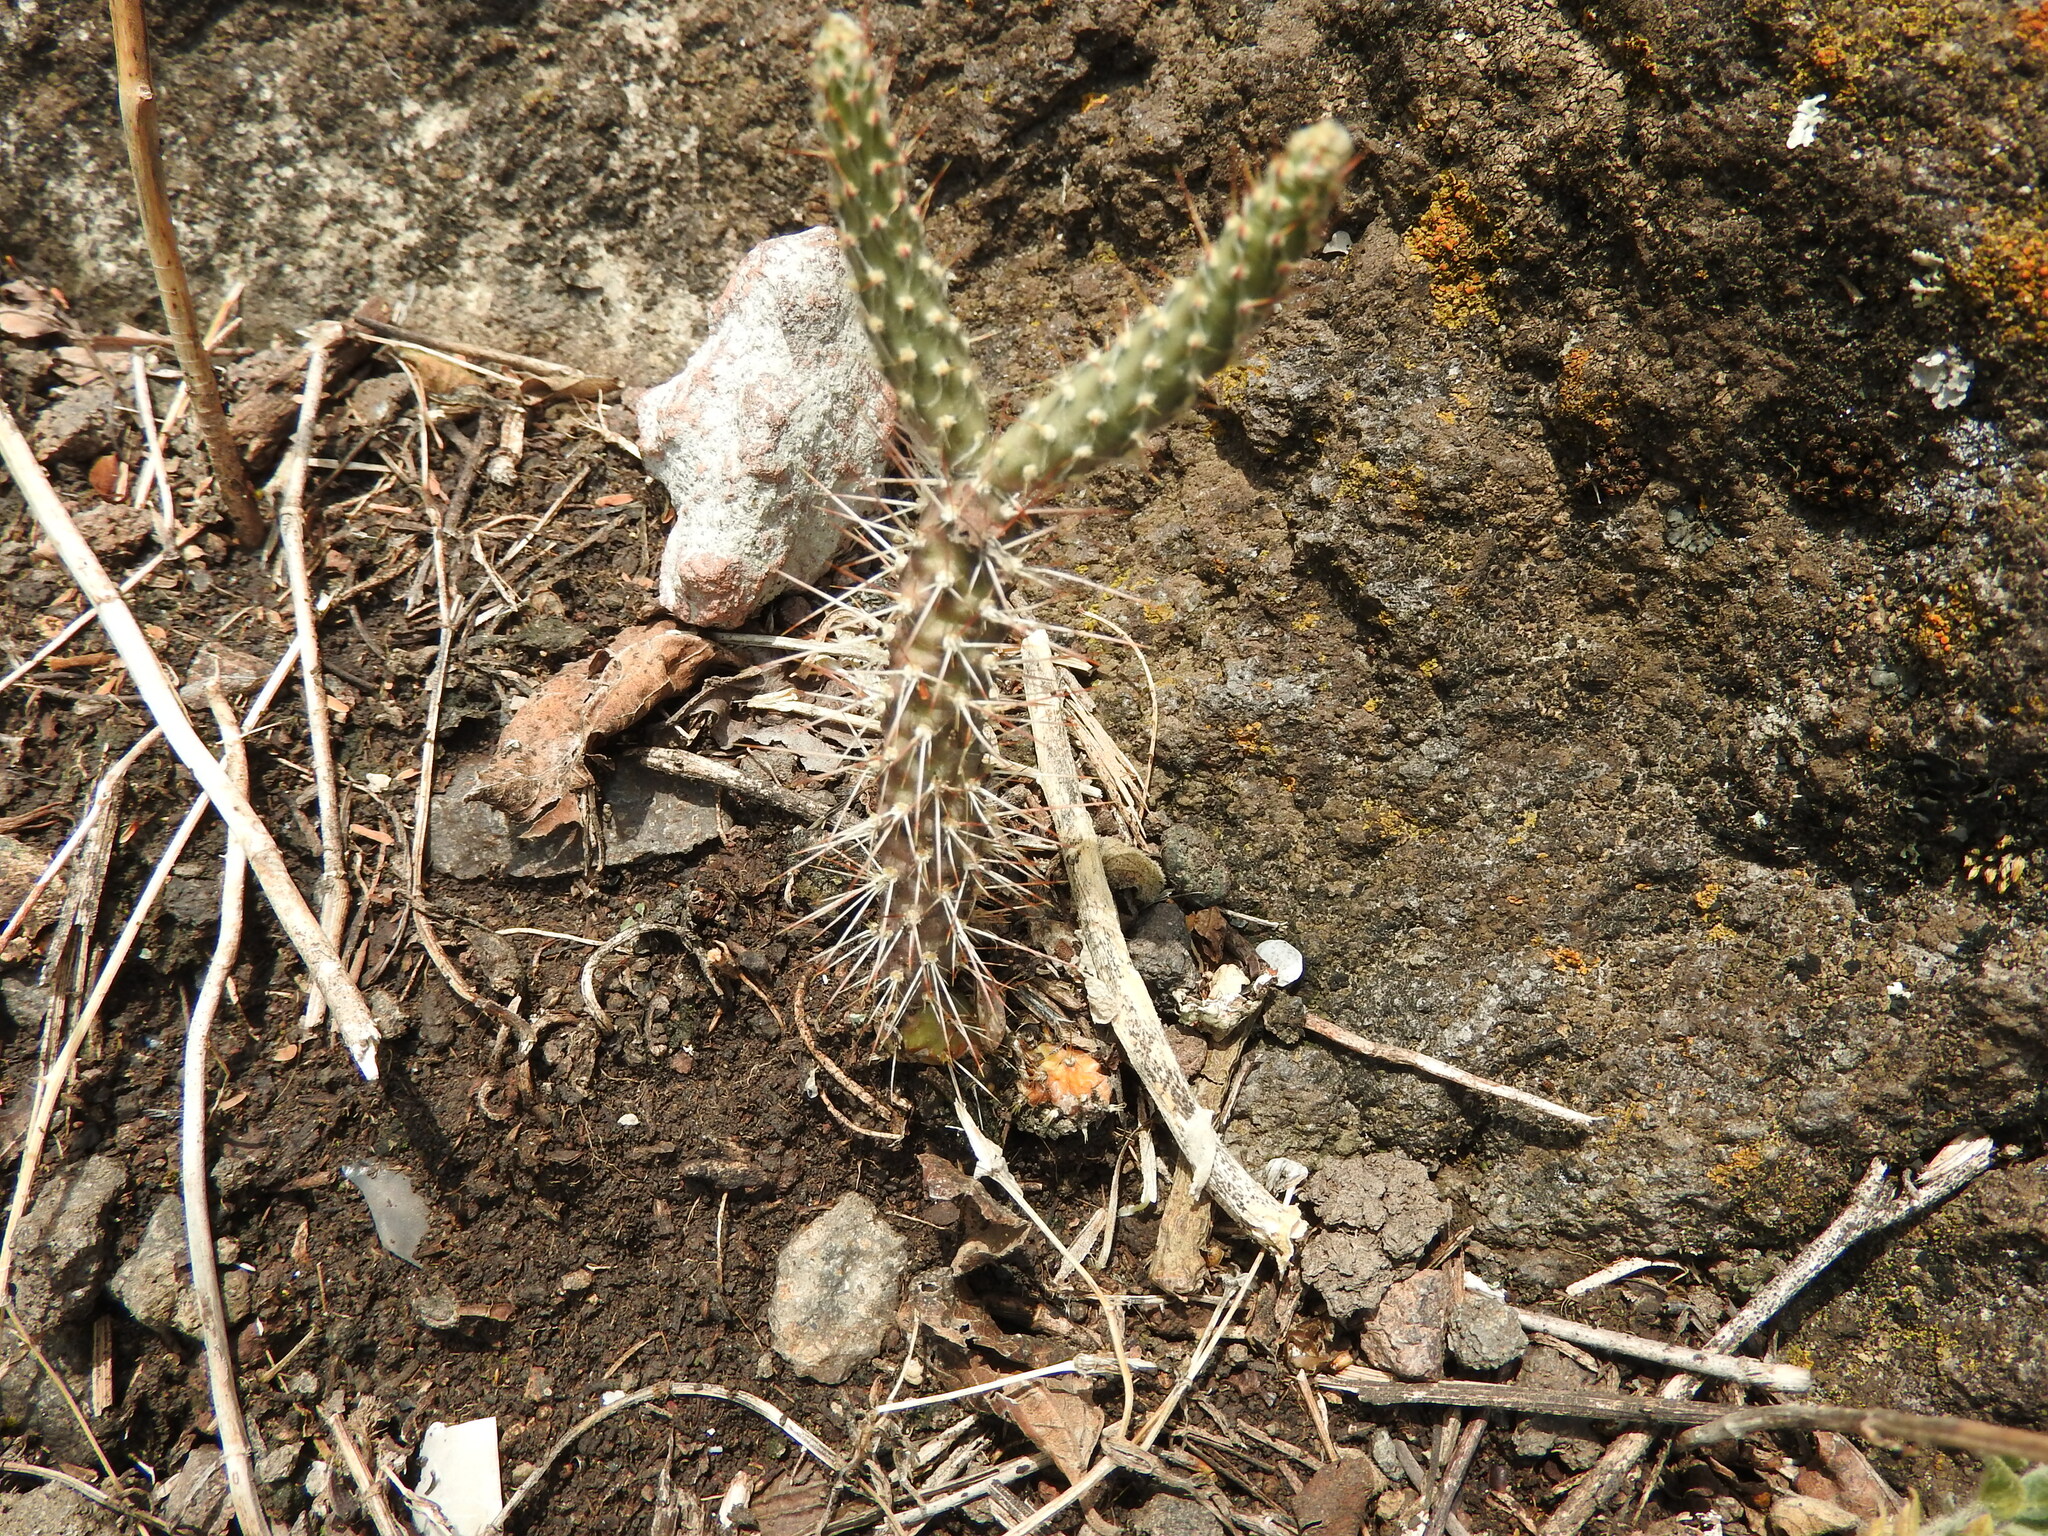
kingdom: Plantae
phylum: Tracheophyta
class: Magnoliopsida
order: Caryophyllales
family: Cactaceae
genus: Opuntia
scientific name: Opuntia pubescens
